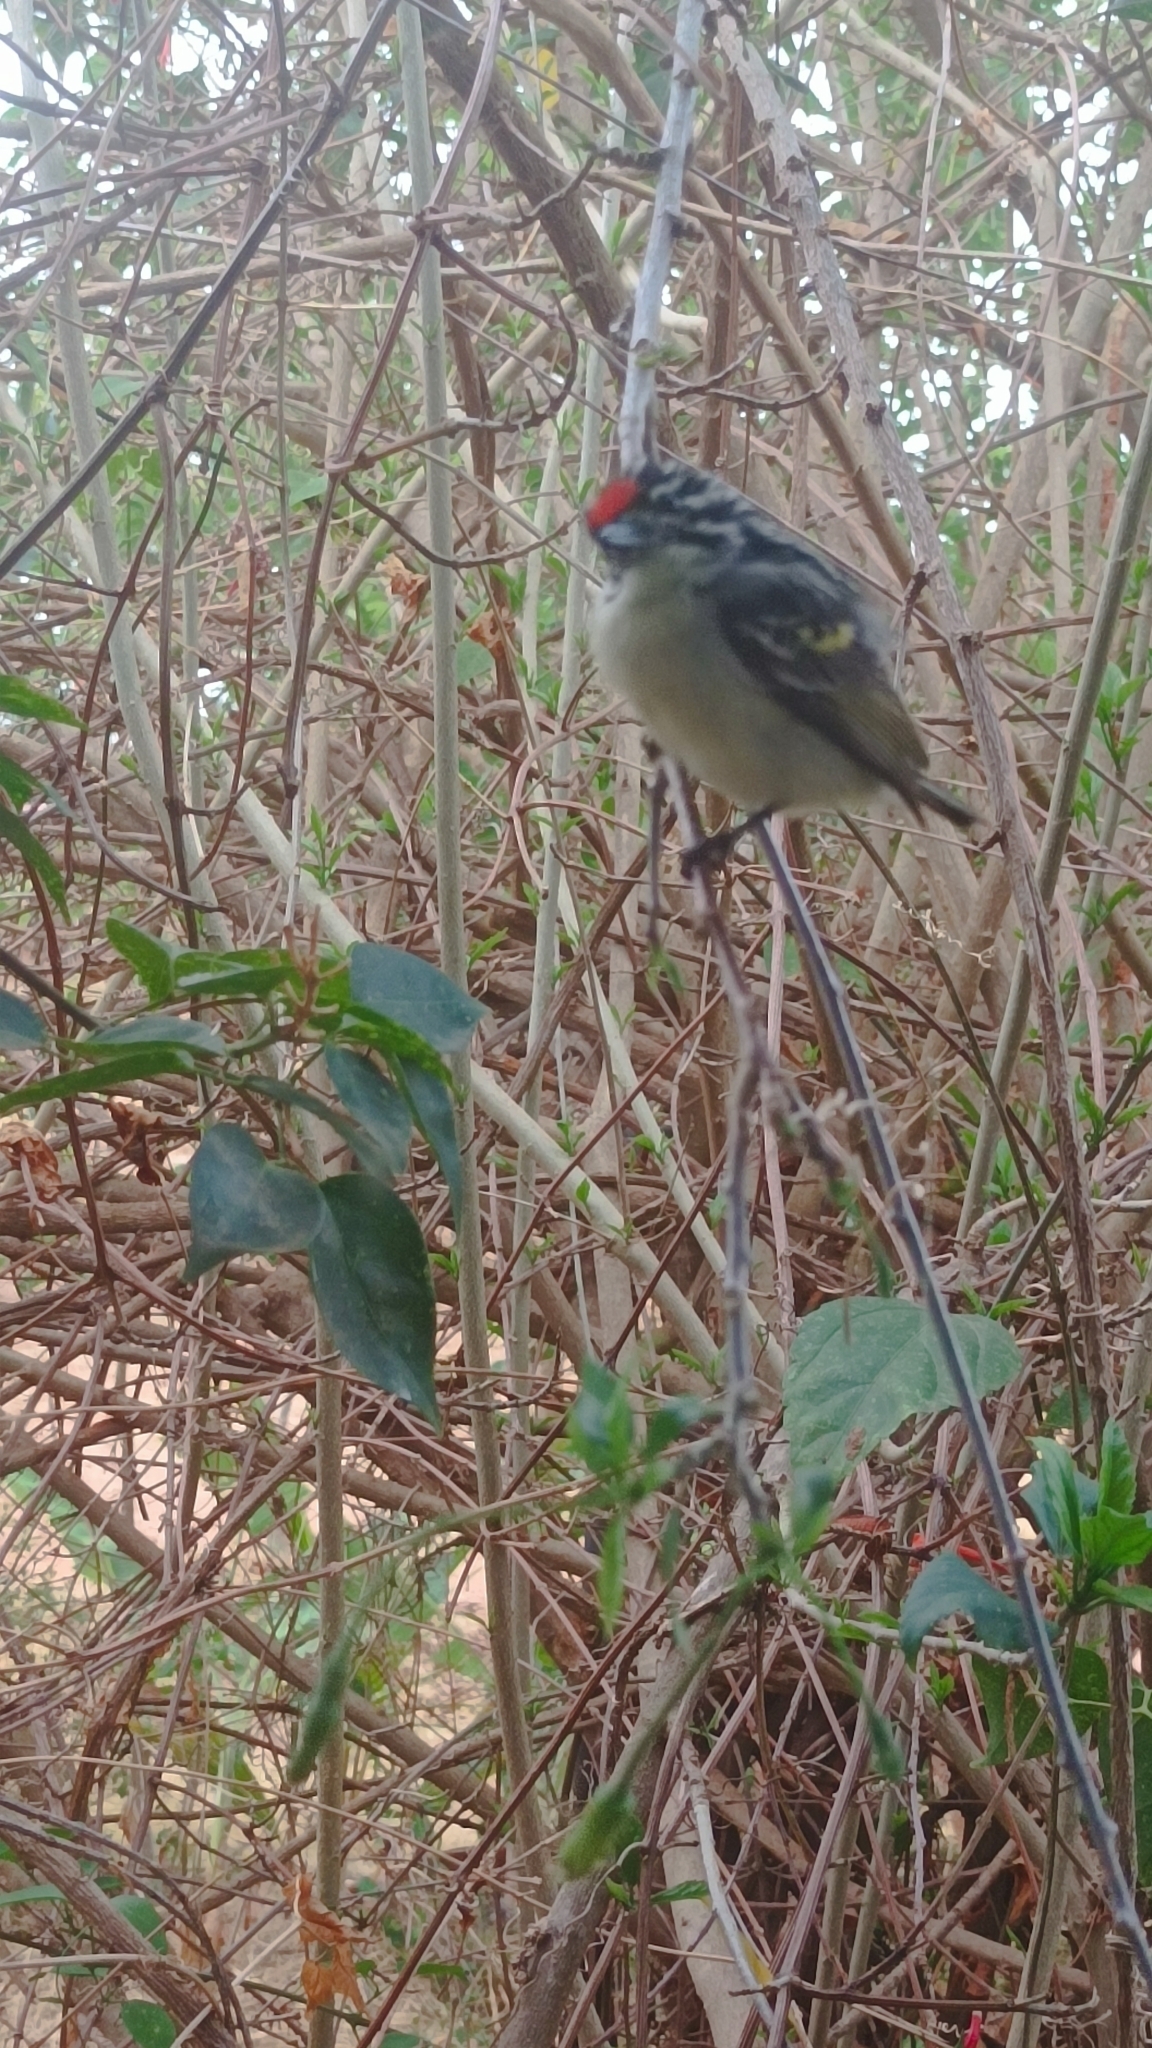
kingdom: Animalia
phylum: Chordata
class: Aves
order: Piciformes
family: Lybiidae
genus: Pogoniulus
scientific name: Pogoniulus pusillus
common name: Red-fronted tinkerbird
